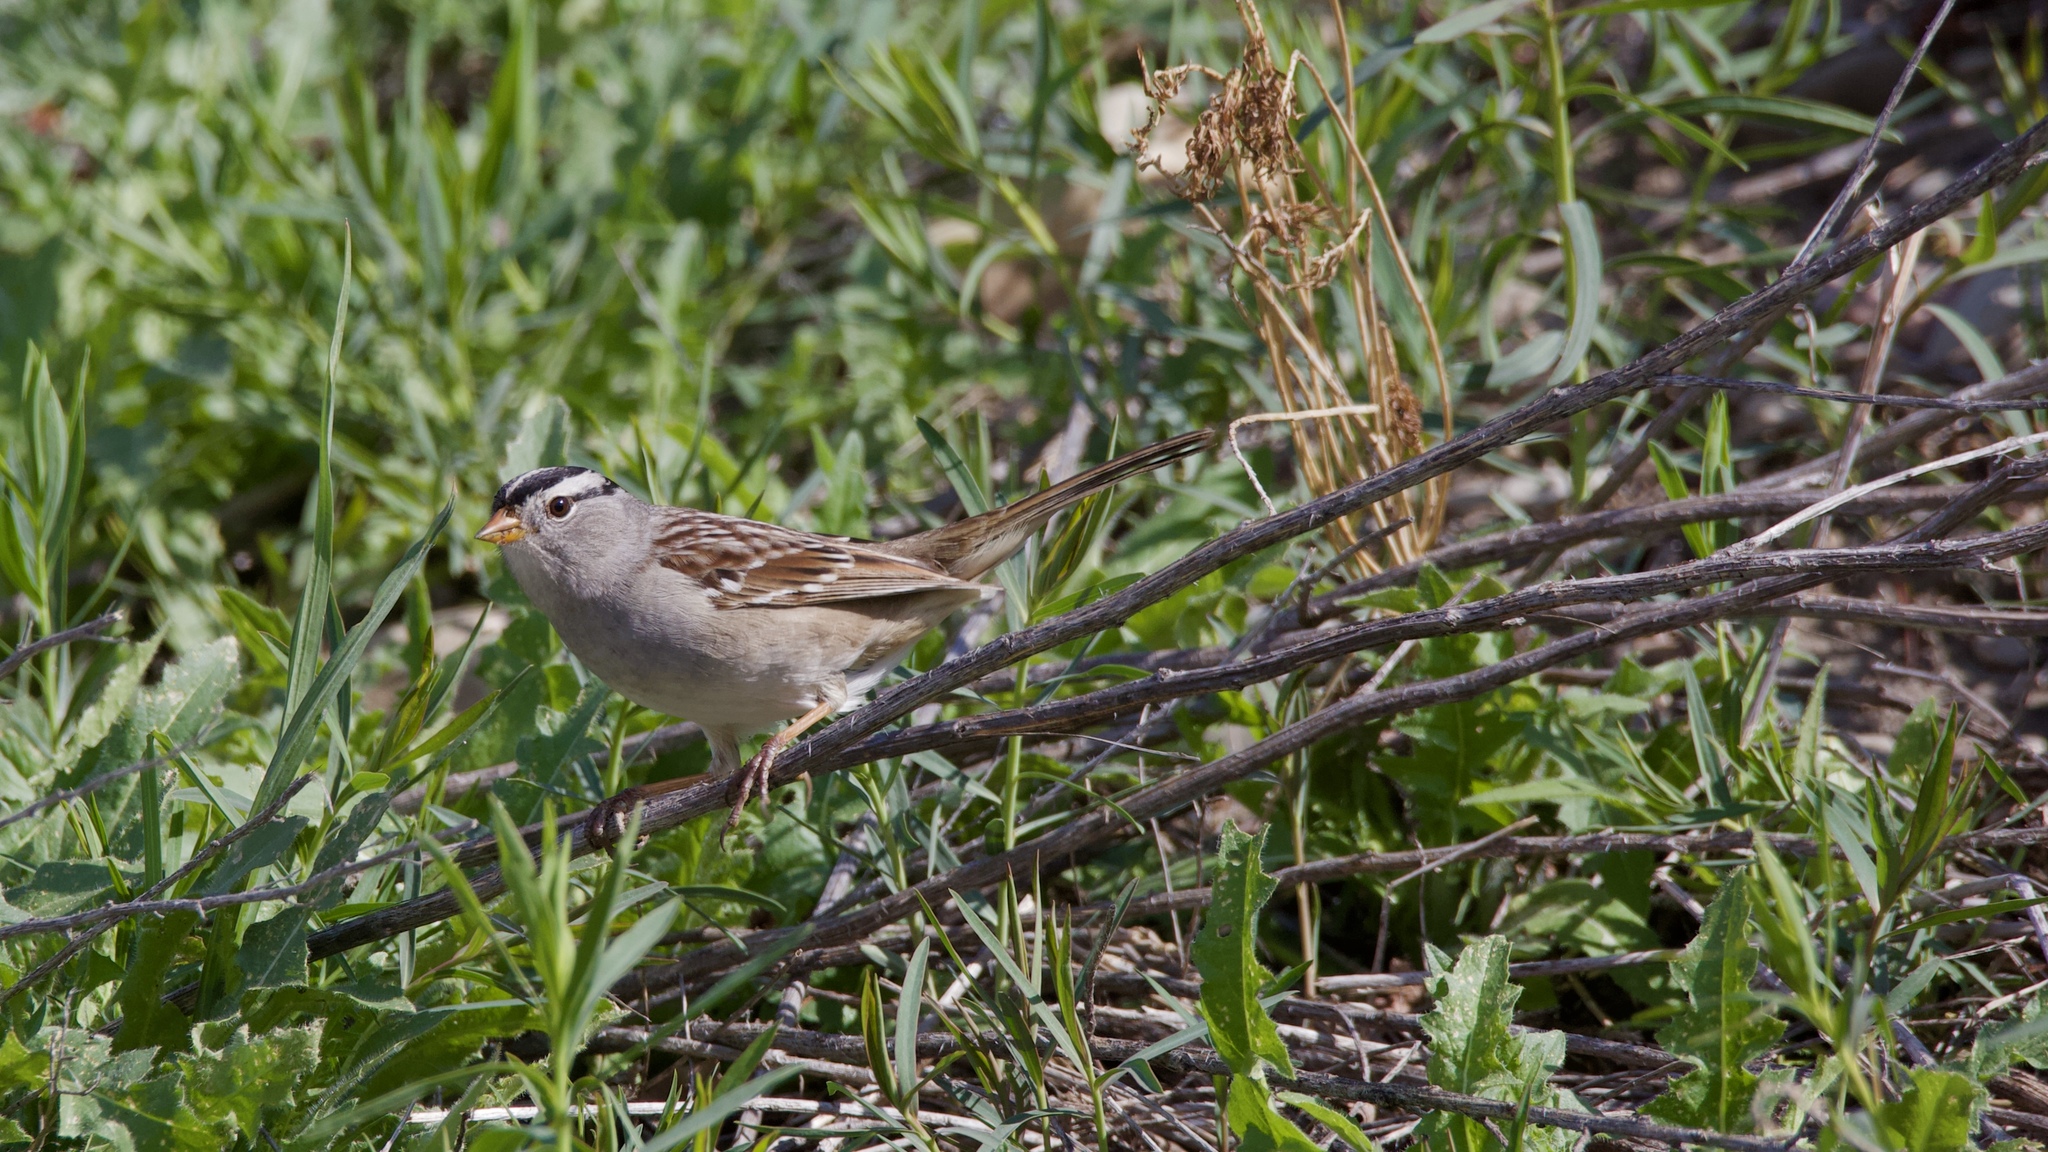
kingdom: Animalia
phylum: Chordata
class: Aves
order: Passeriformes
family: Passerellidae
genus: Zonotrichia
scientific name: Zonotrichia leucophrys
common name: White-crowned sparrow
